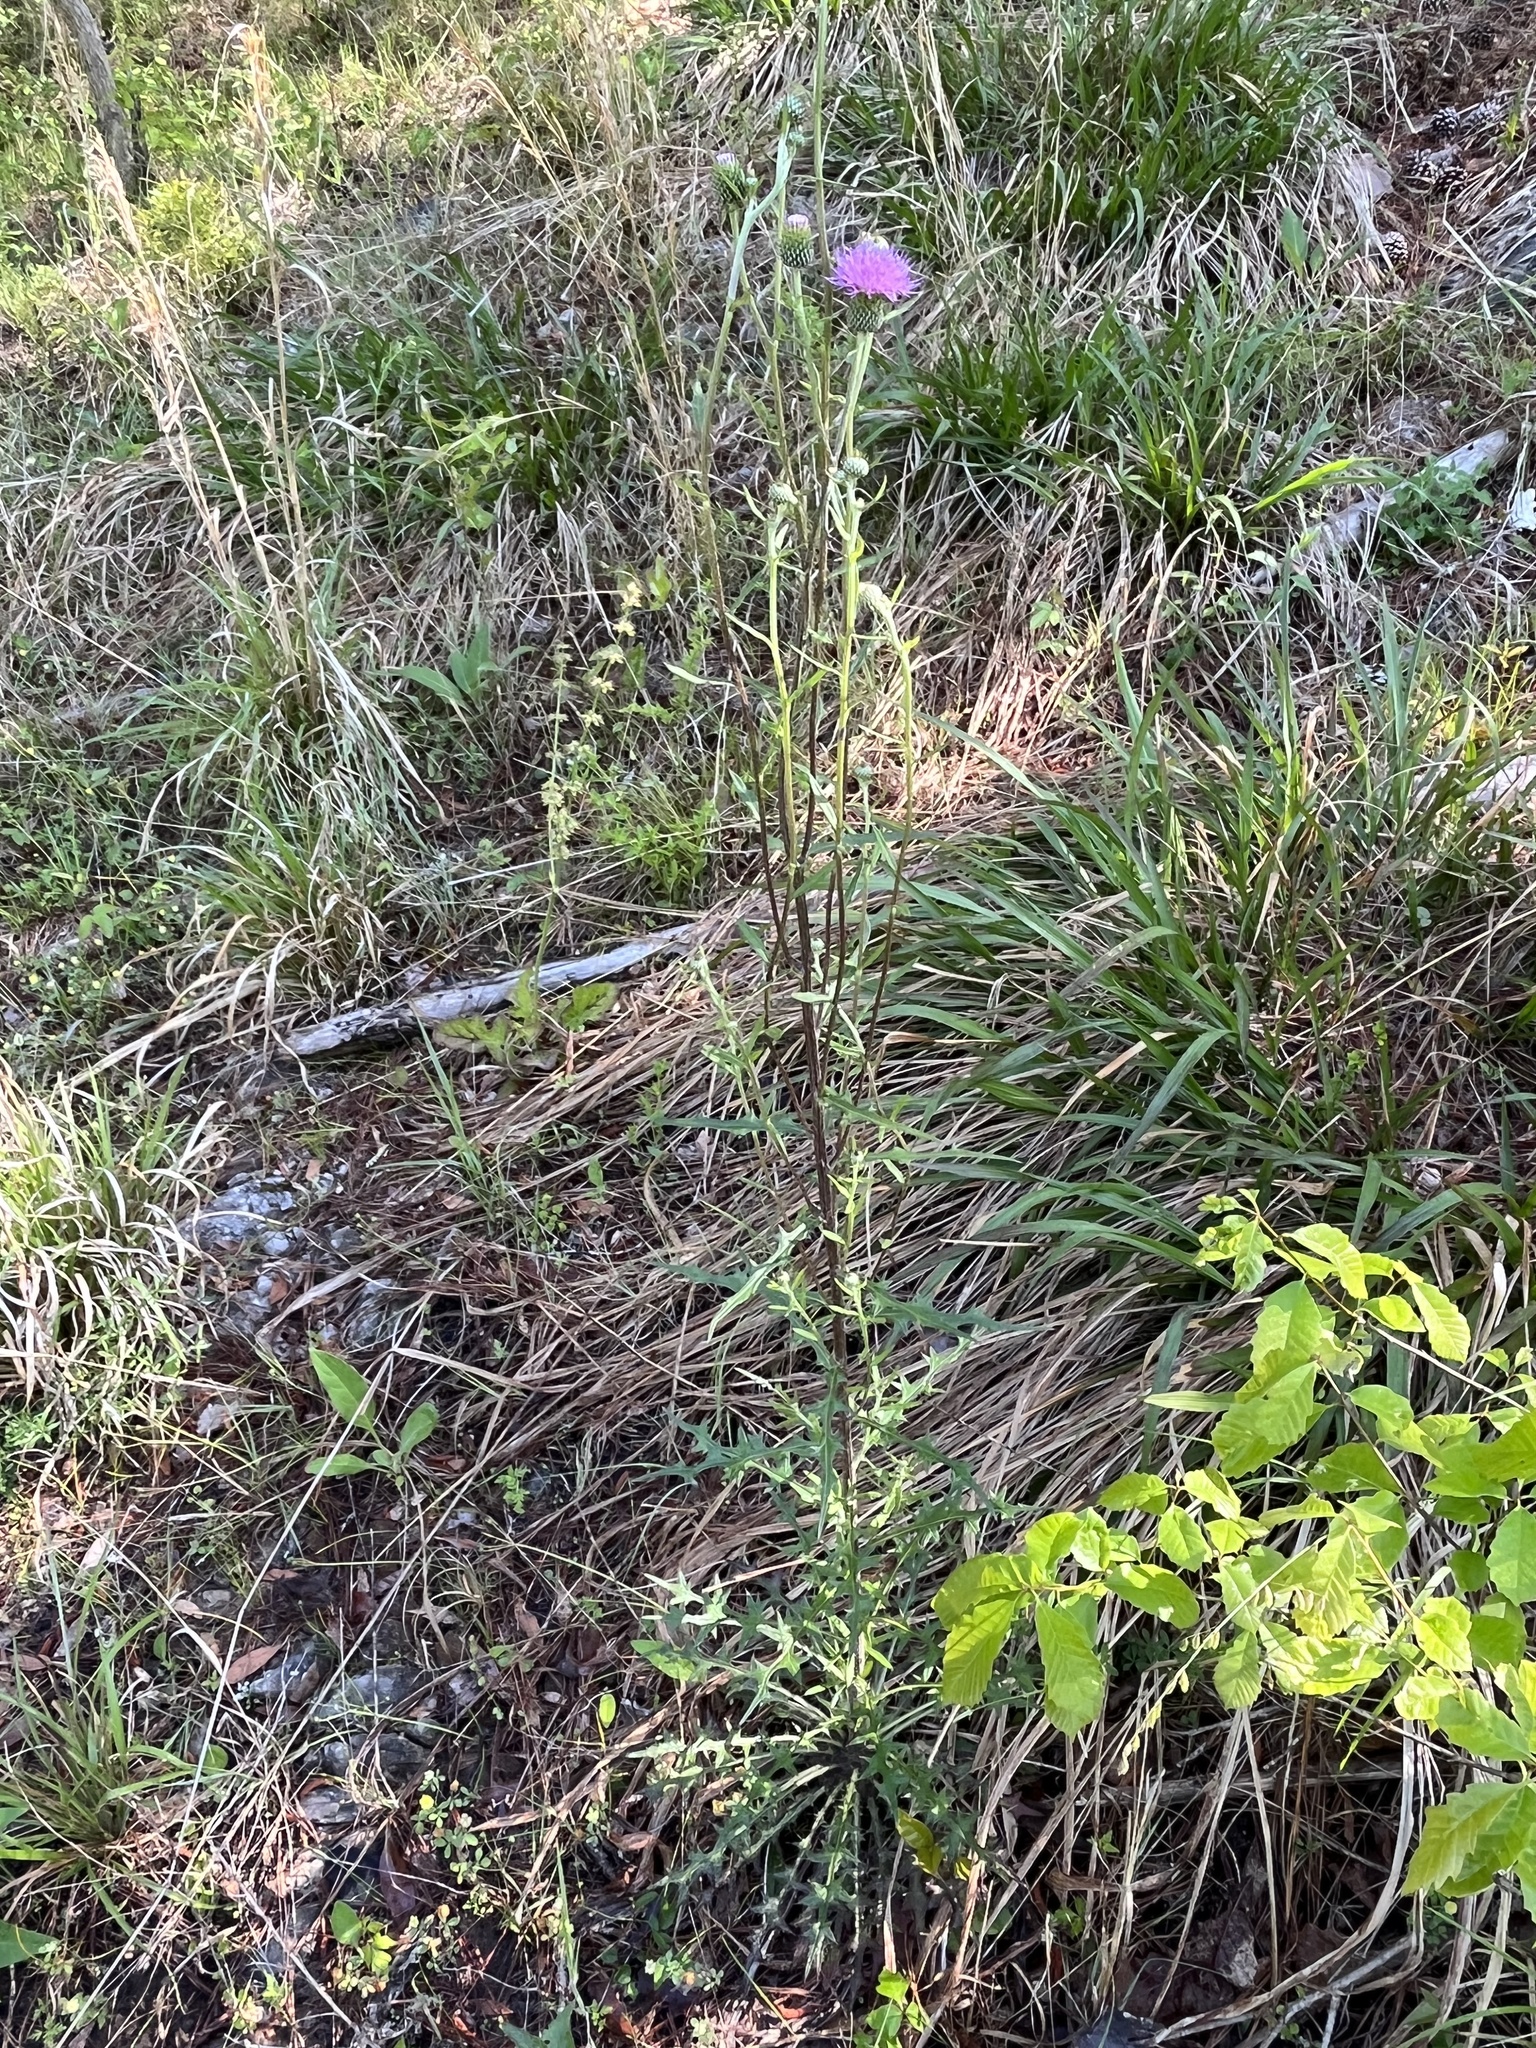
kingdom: Plantae
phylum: Tracheophyta
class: Magnoliopsida
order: Asterales
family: Asteraceae
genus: Cirsium
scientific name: Cirsium carolinianum
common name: Carolina thistle
